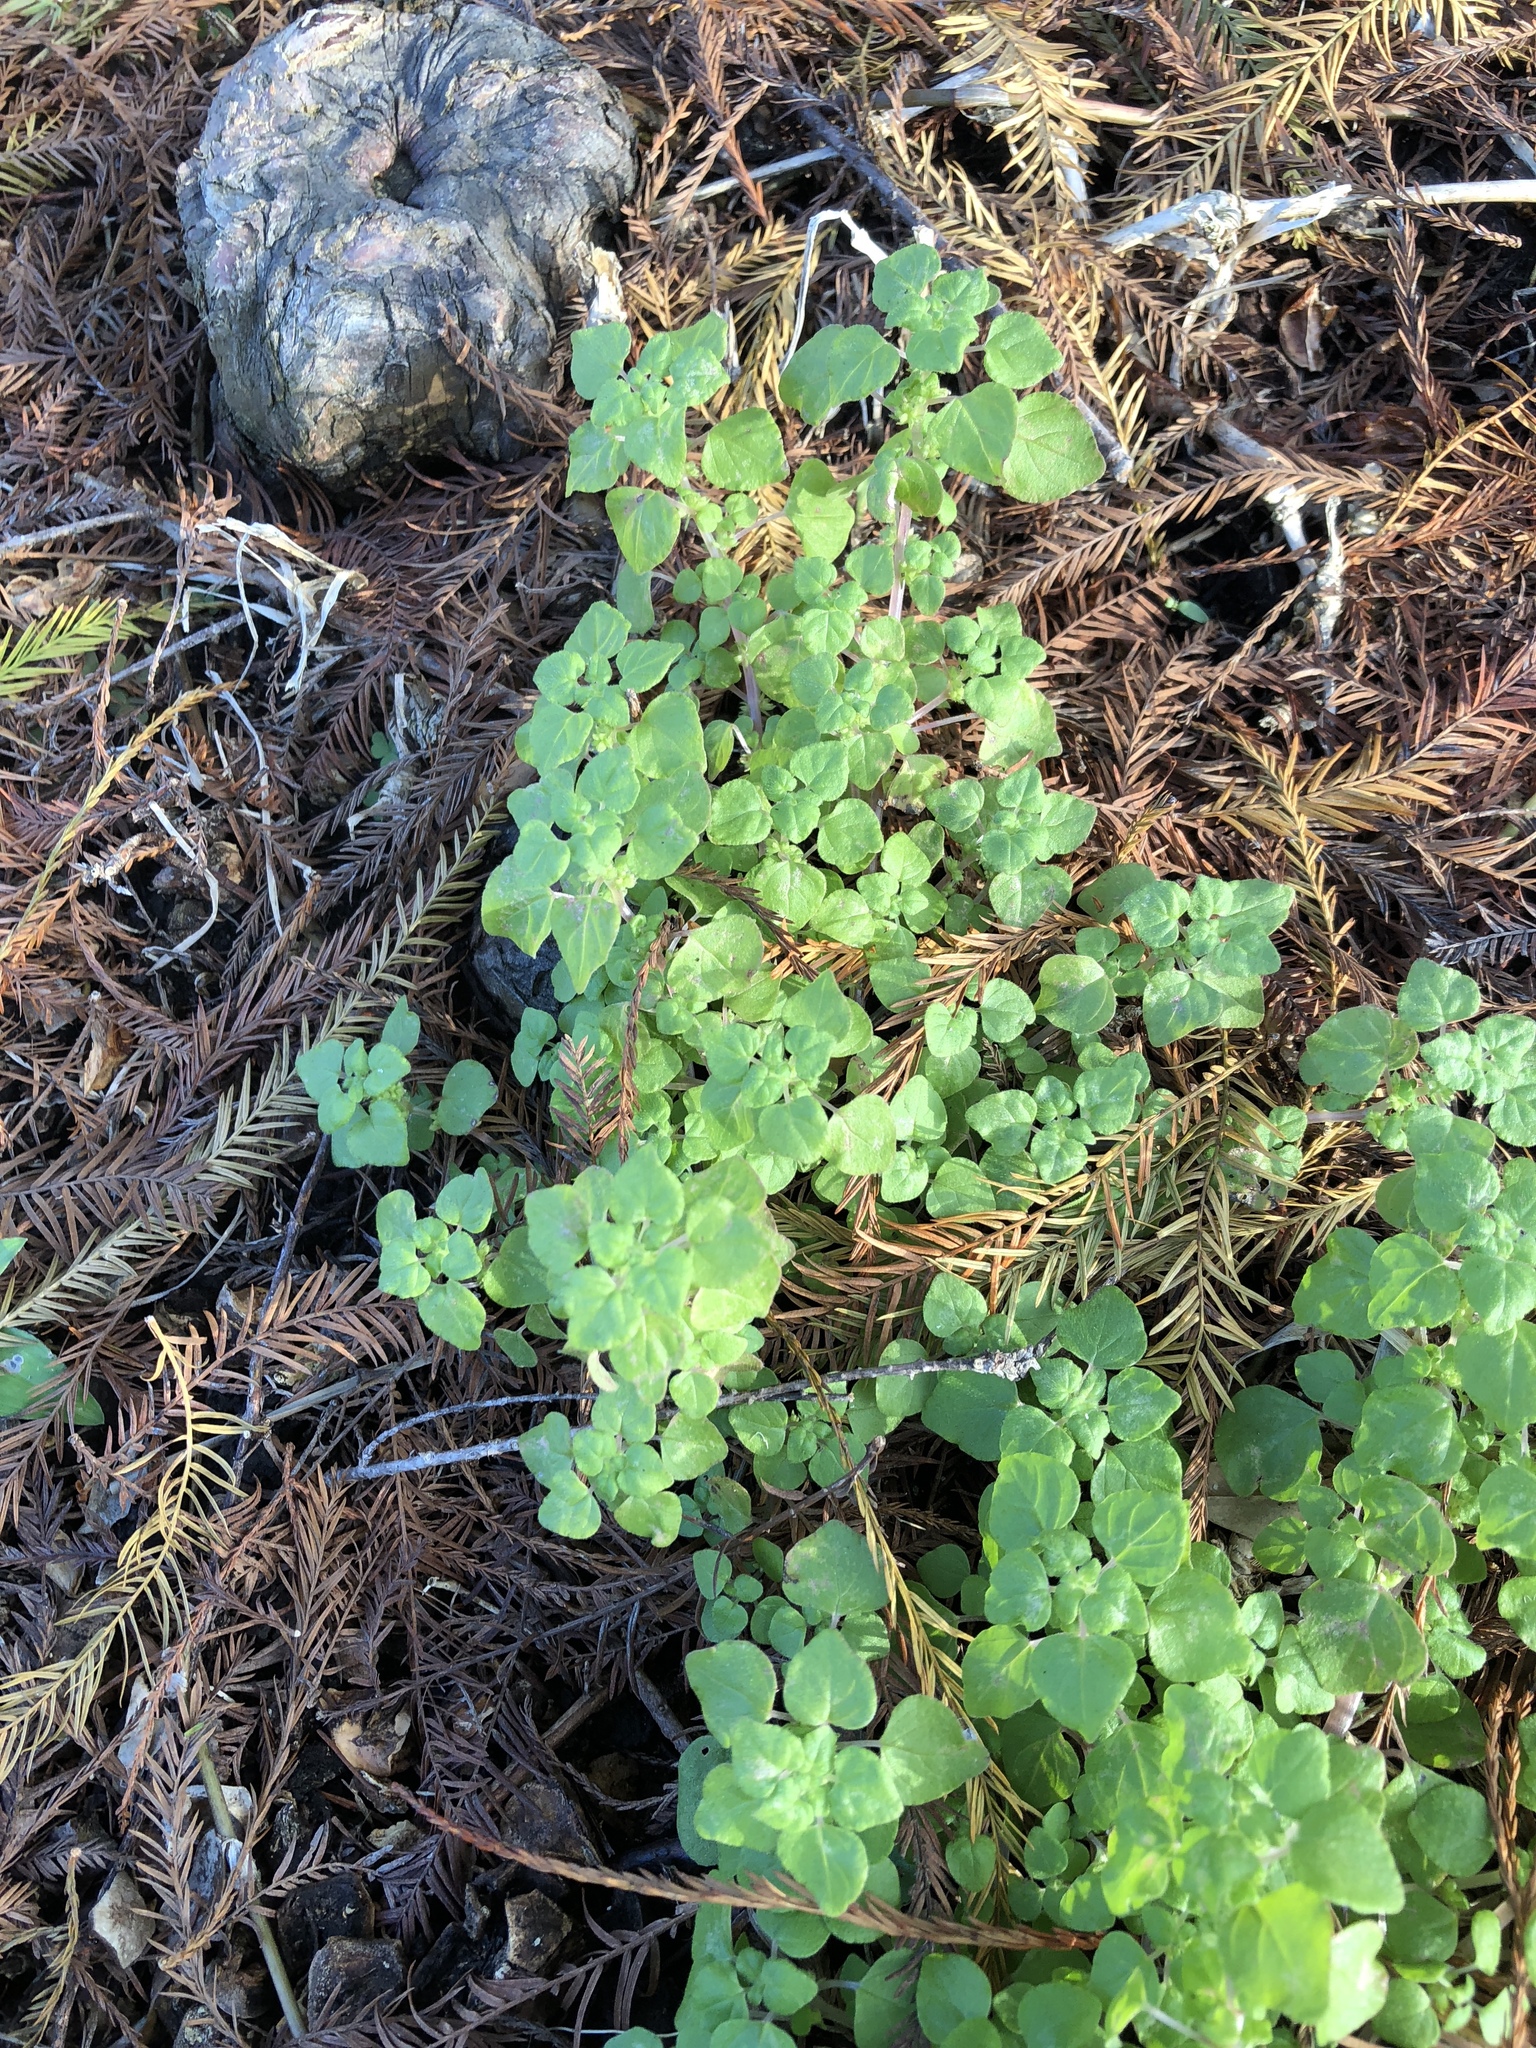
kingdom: Plantae
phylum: Tracheophyta
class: Magnoliopsida
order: Rosales
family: Urticaceae
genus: Parietaria
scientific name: Parietaria floridana
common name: Florida pellitory
